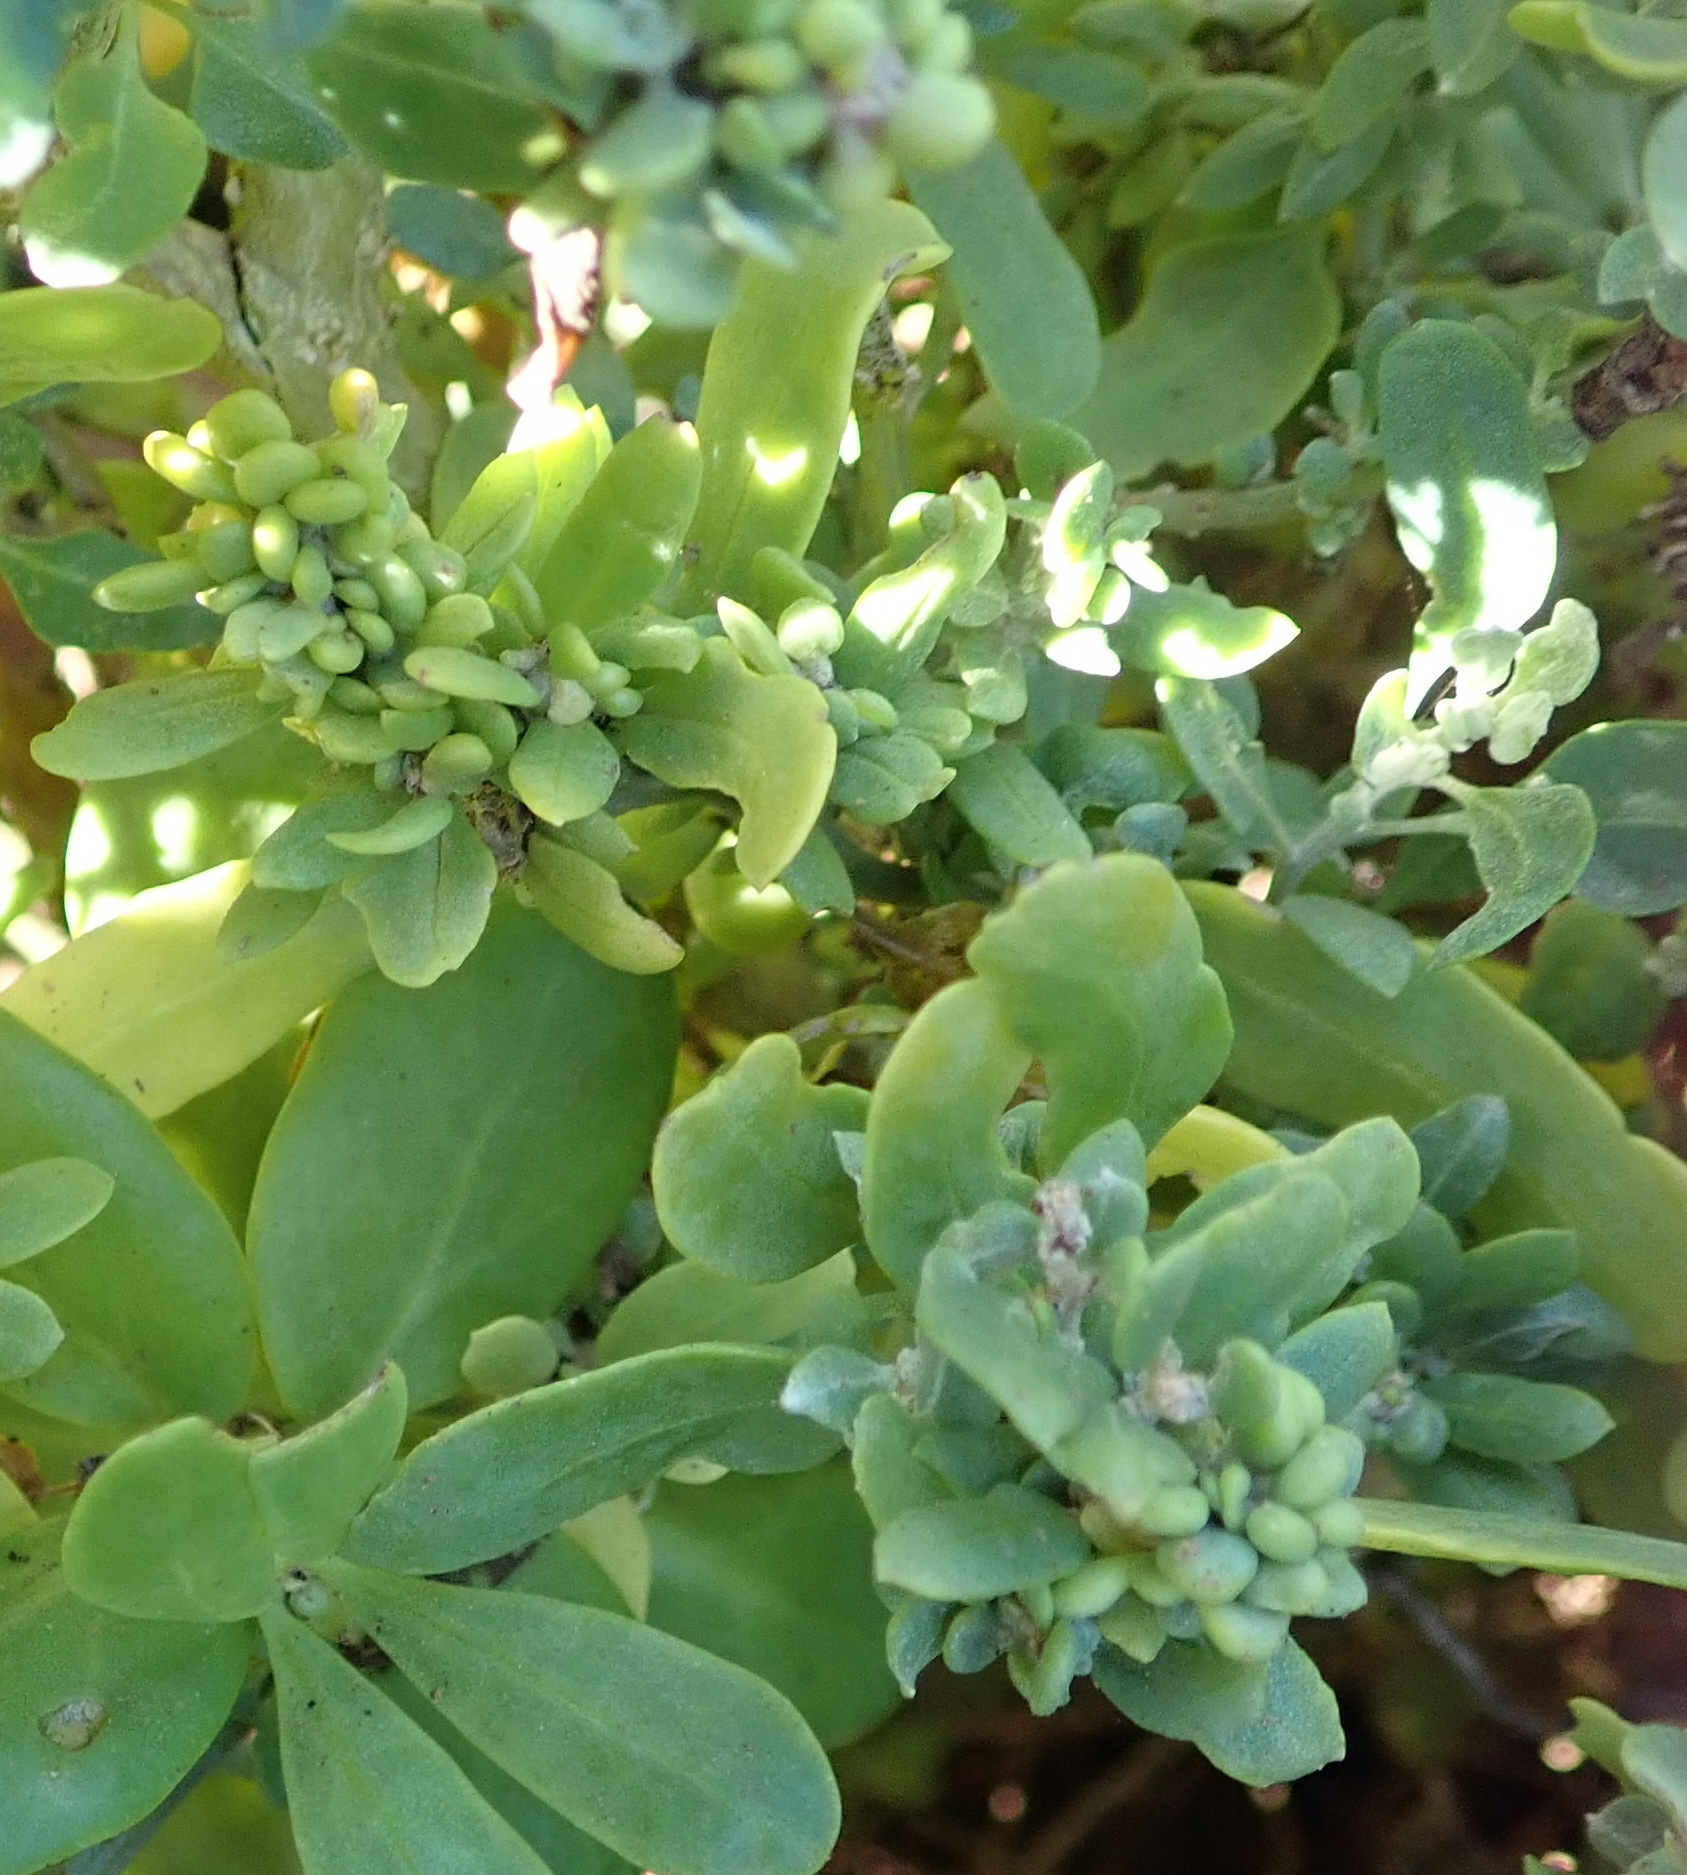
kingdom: Plantae
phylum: Tracheophyta
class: Magnoliopsida
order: Caryophyllales
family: Amaranthaceae
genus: Exomis
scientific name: Exomis albicans
